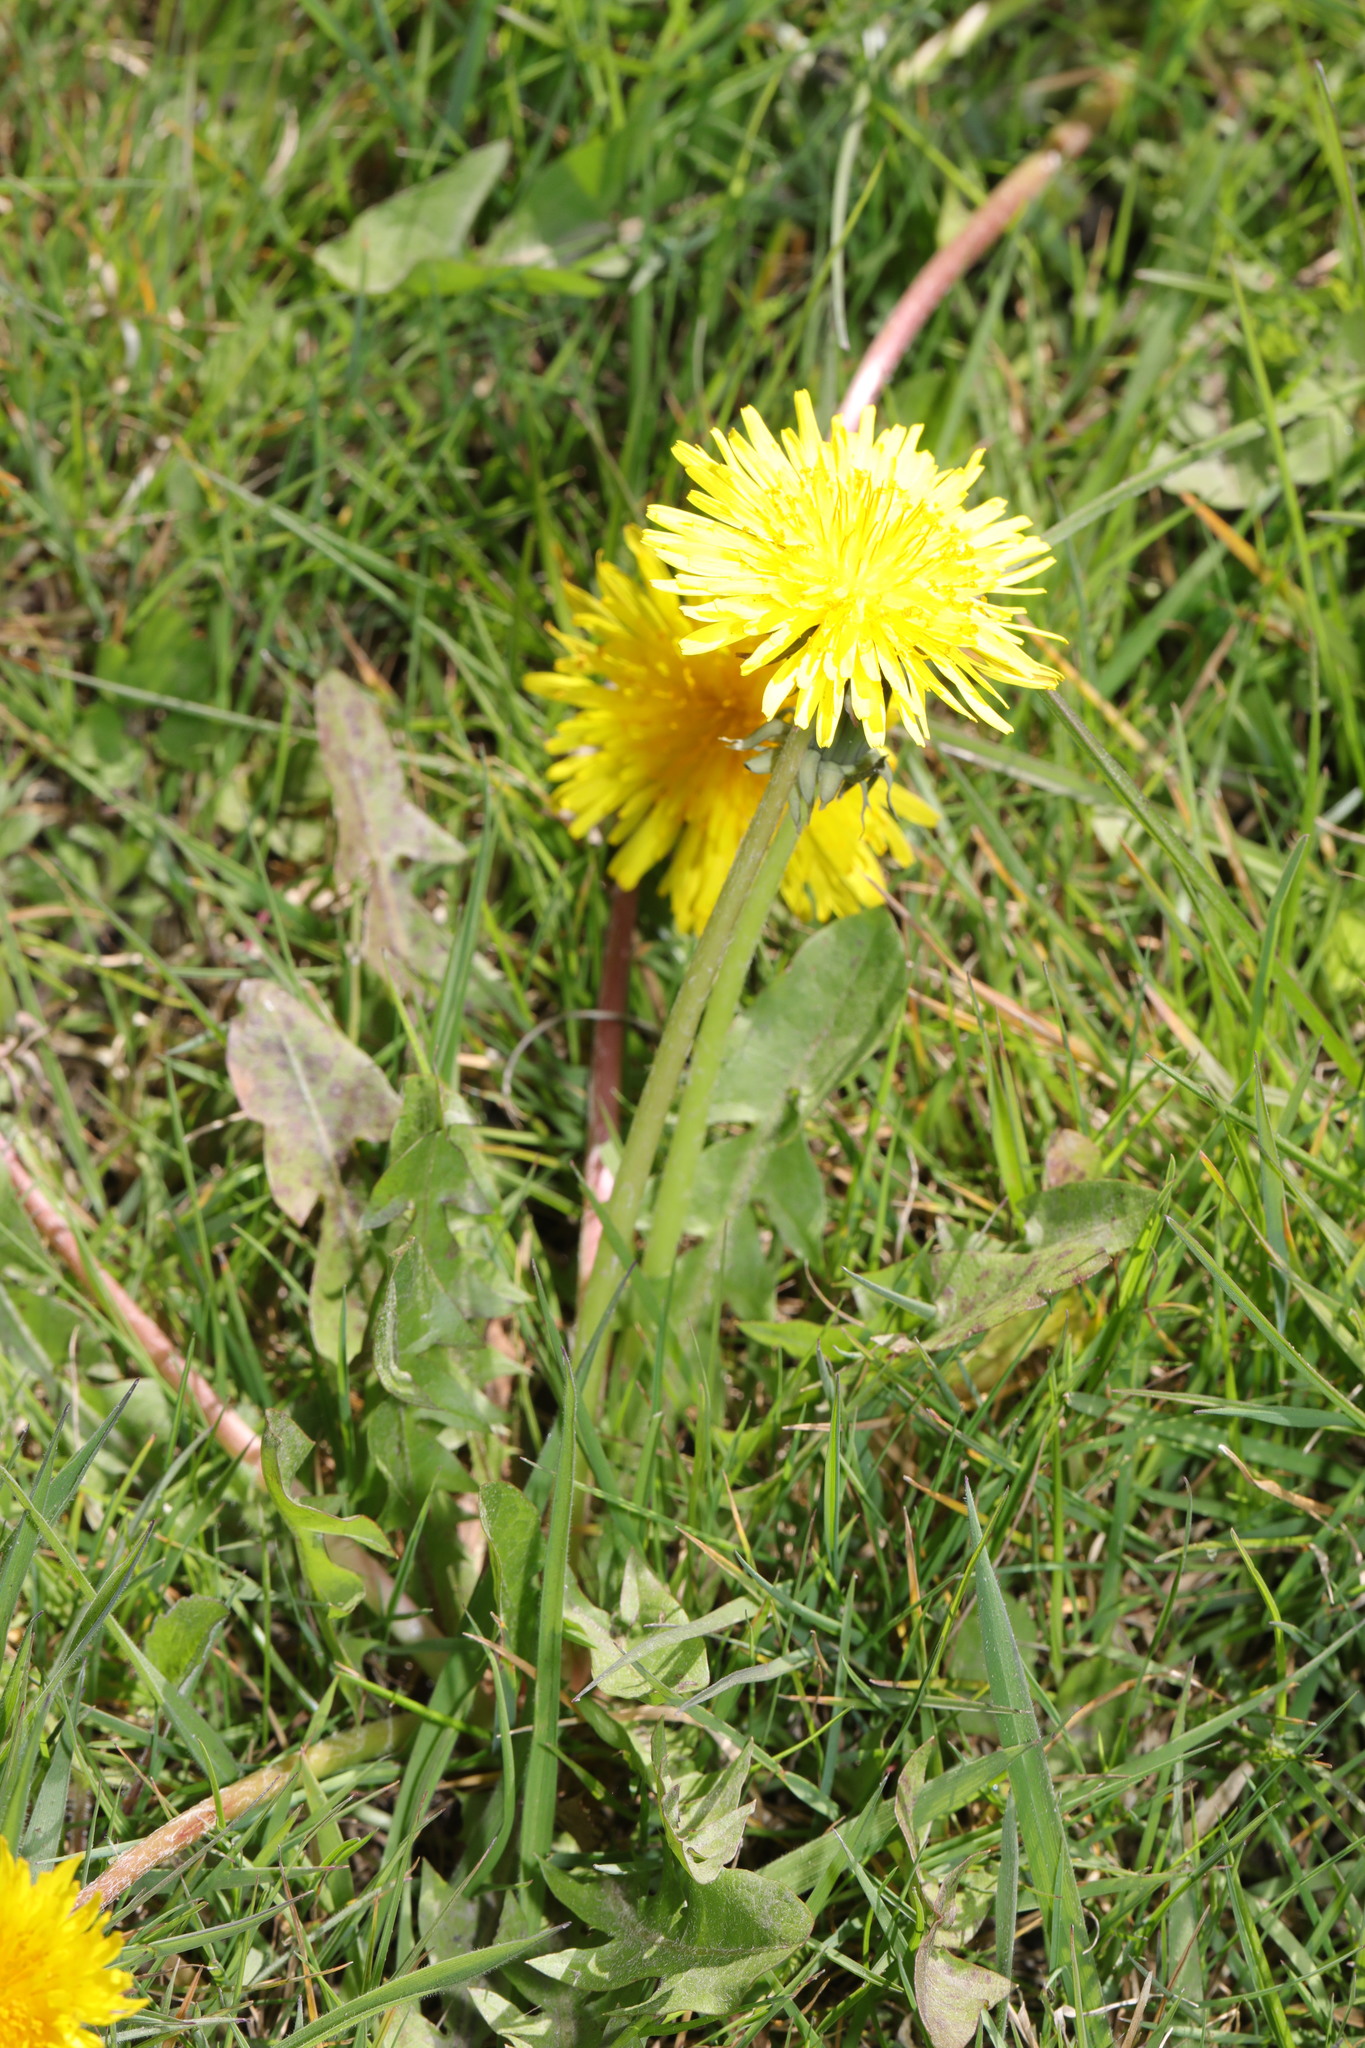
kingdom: Plantae
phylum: Tracheophyta
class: Magnoliopsida
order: Asterales
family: Asteraceae
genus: Taraxacum
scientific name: Taraxacum officinale
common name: Common dandelion
